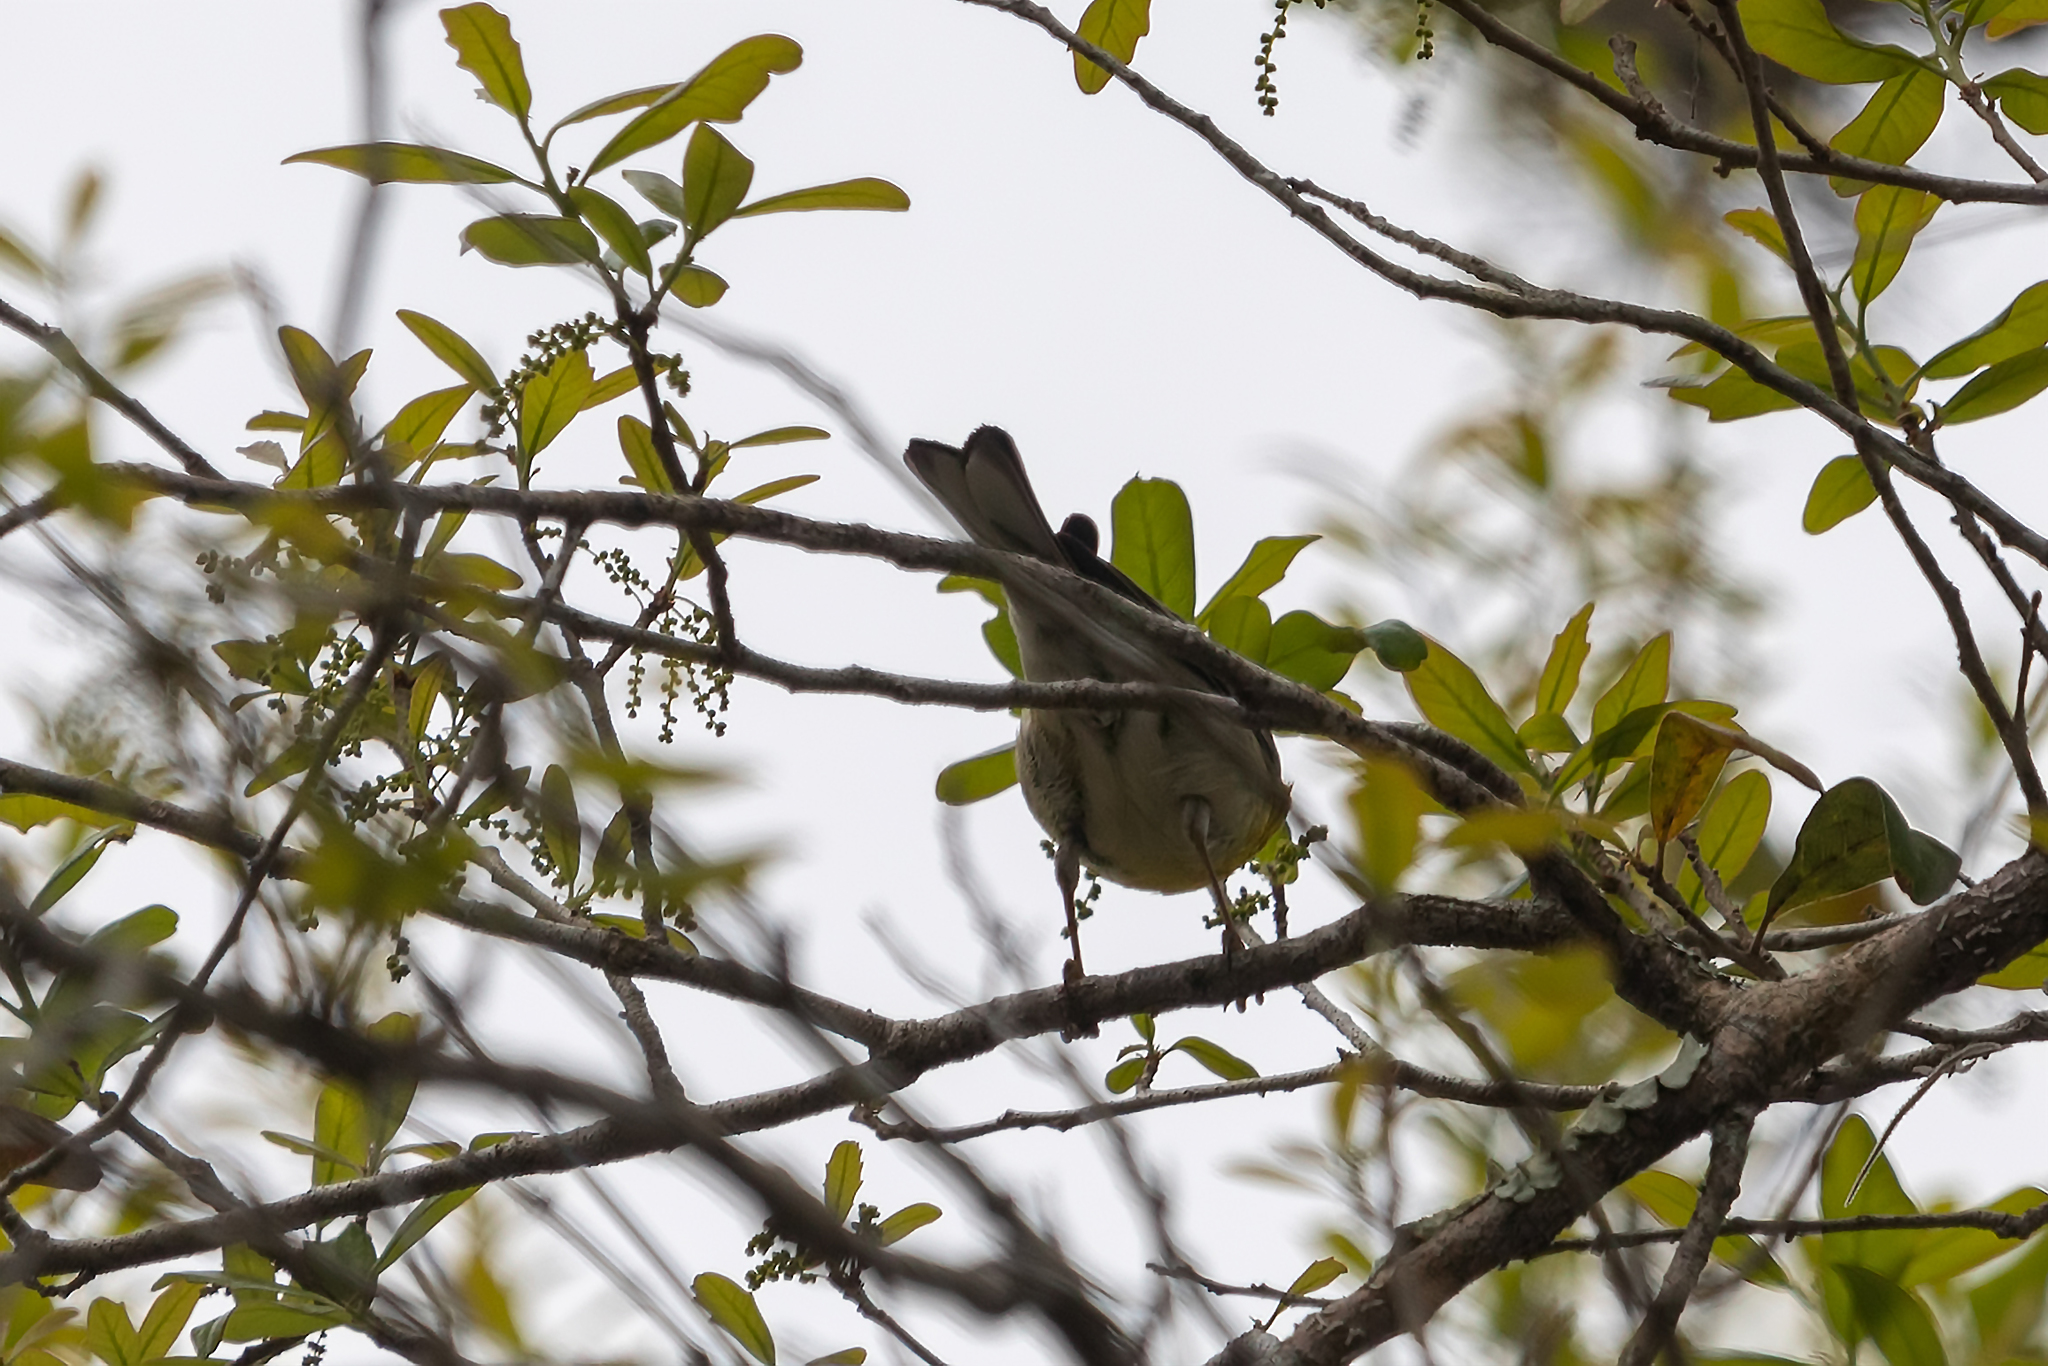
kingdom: Animalia
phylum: Chordata
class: Aves
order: Passeriformes
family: Parulidae
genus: Setophaga
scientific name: Setophaga pinus
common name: Pine warbler
